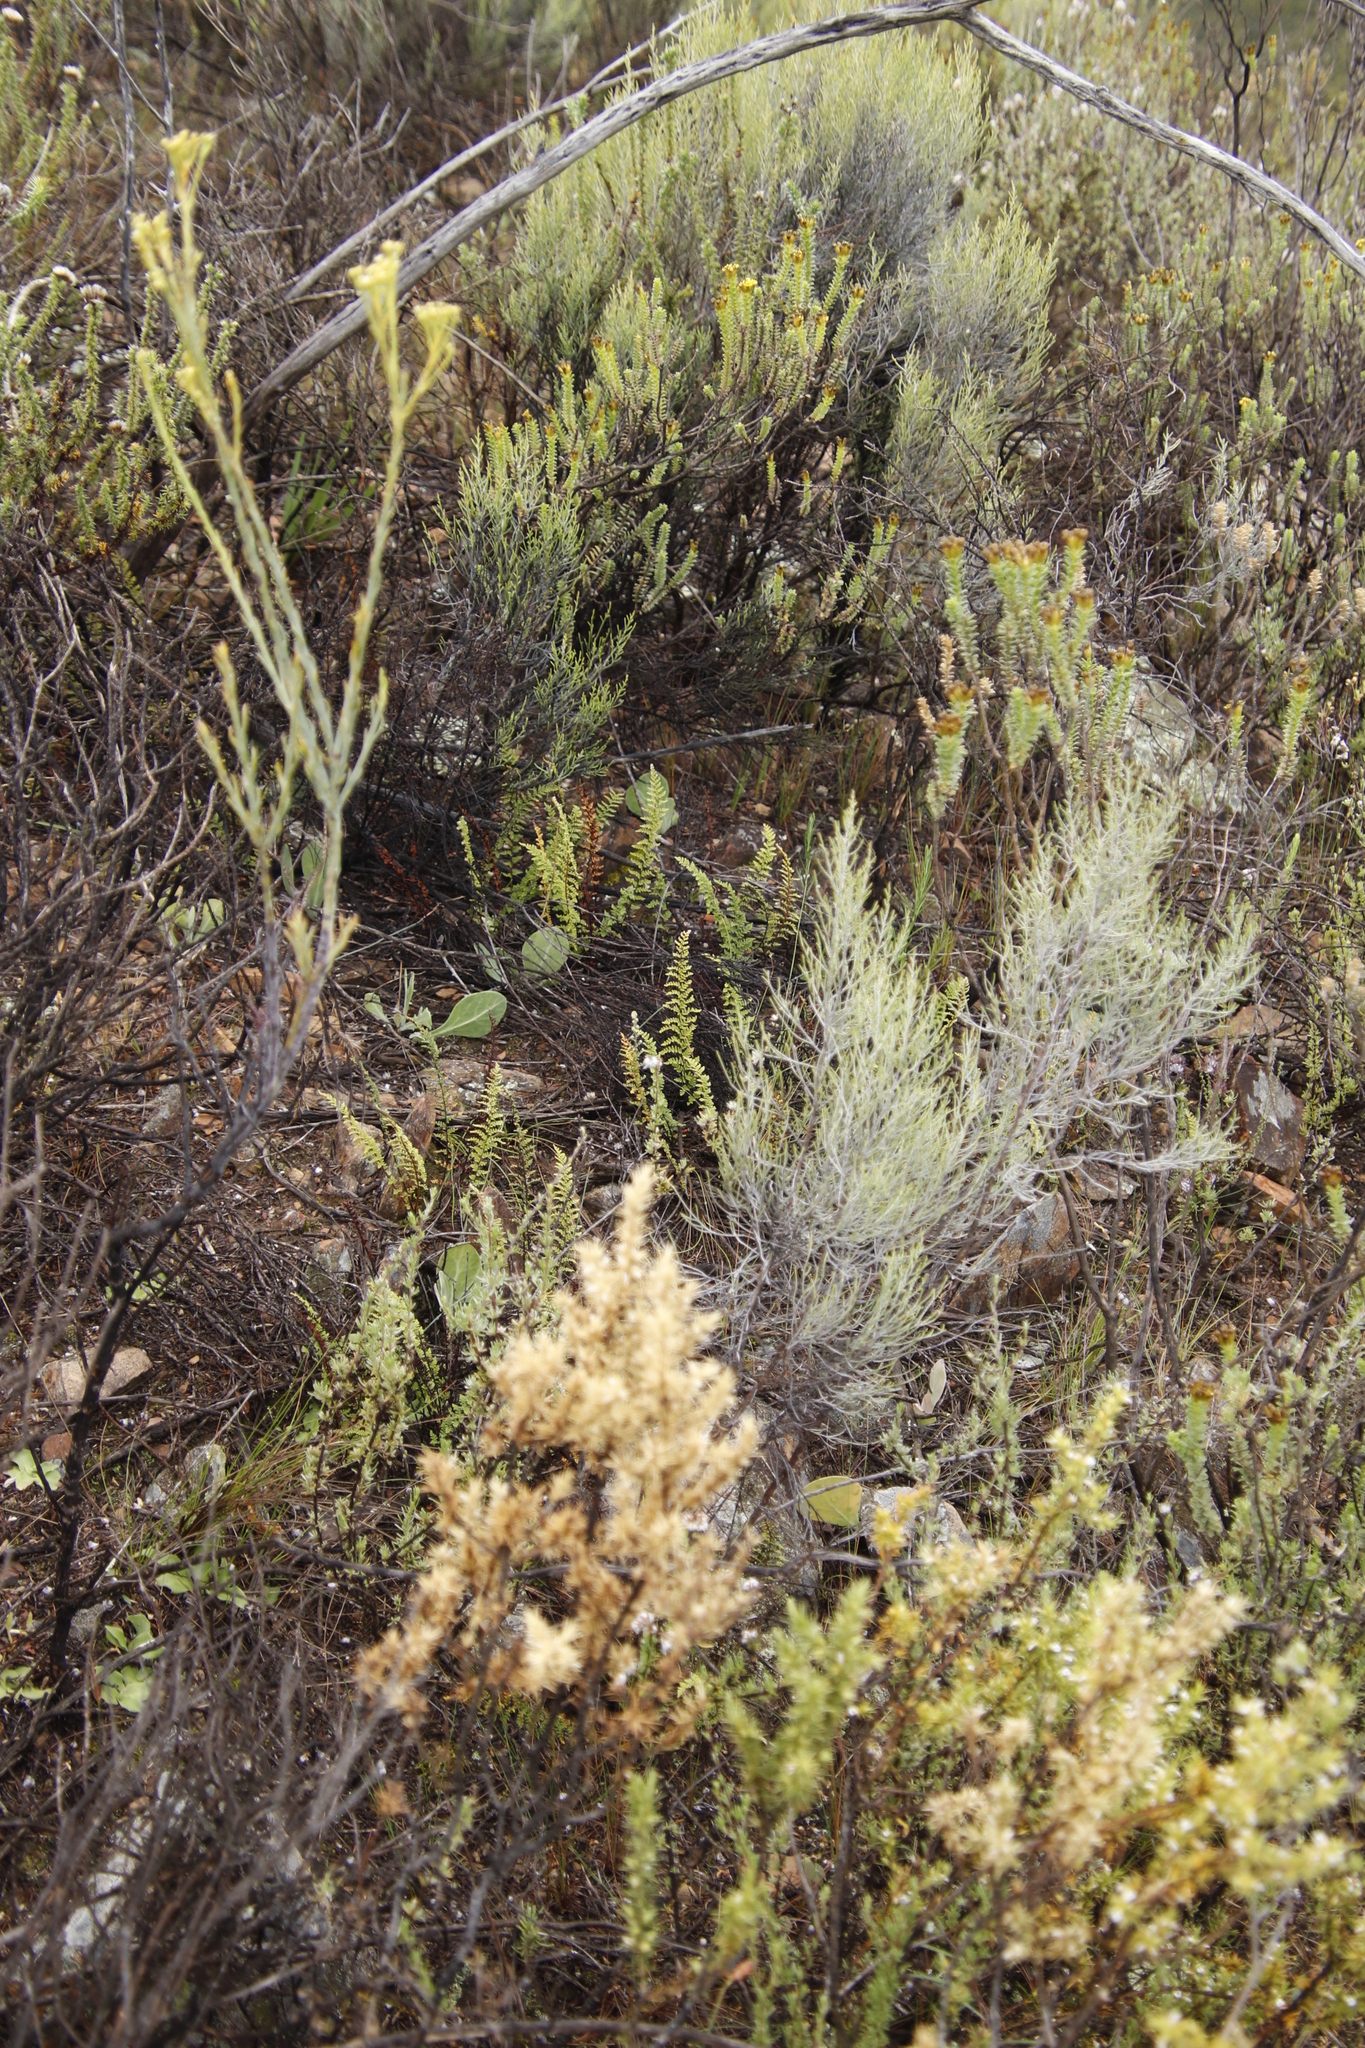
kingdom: Plantae
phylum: Tracheophyta
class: Magnoliopsida
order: Asterales
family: Asteraceae
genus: Dicerothamnus
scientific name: Dicerothamnus rhinocerotis
